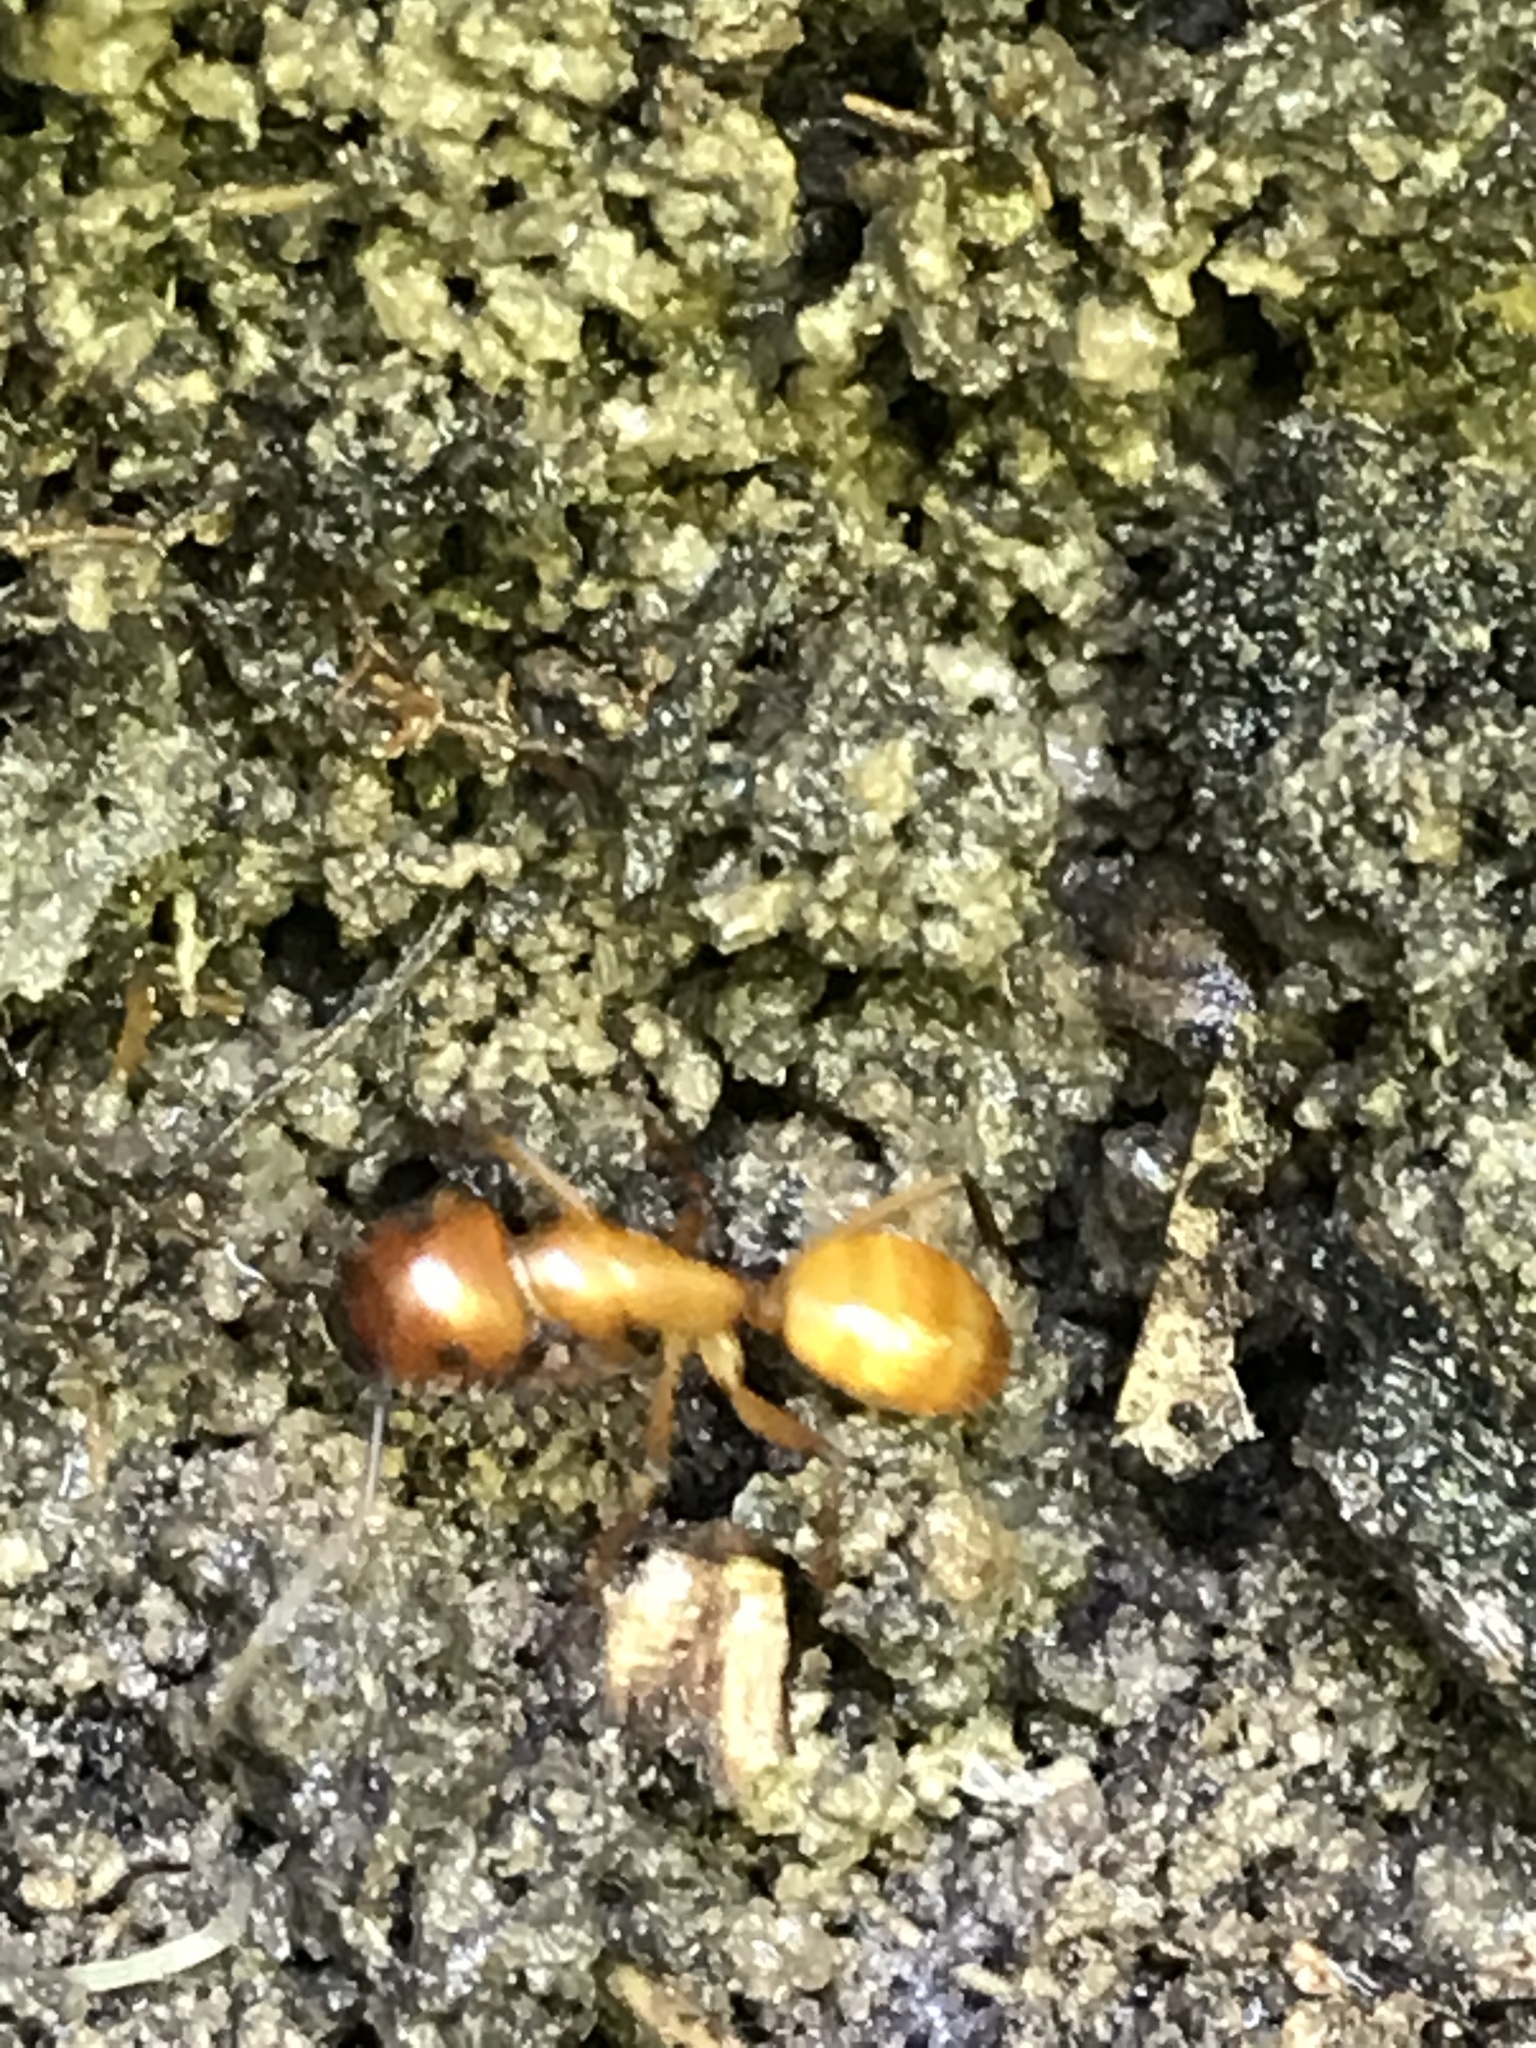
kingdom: Animalia
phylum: Arthropoda
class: Insecta
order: Hymenoptera
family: Formicidae
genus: Camponotus
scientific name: Camponotus castaneus
